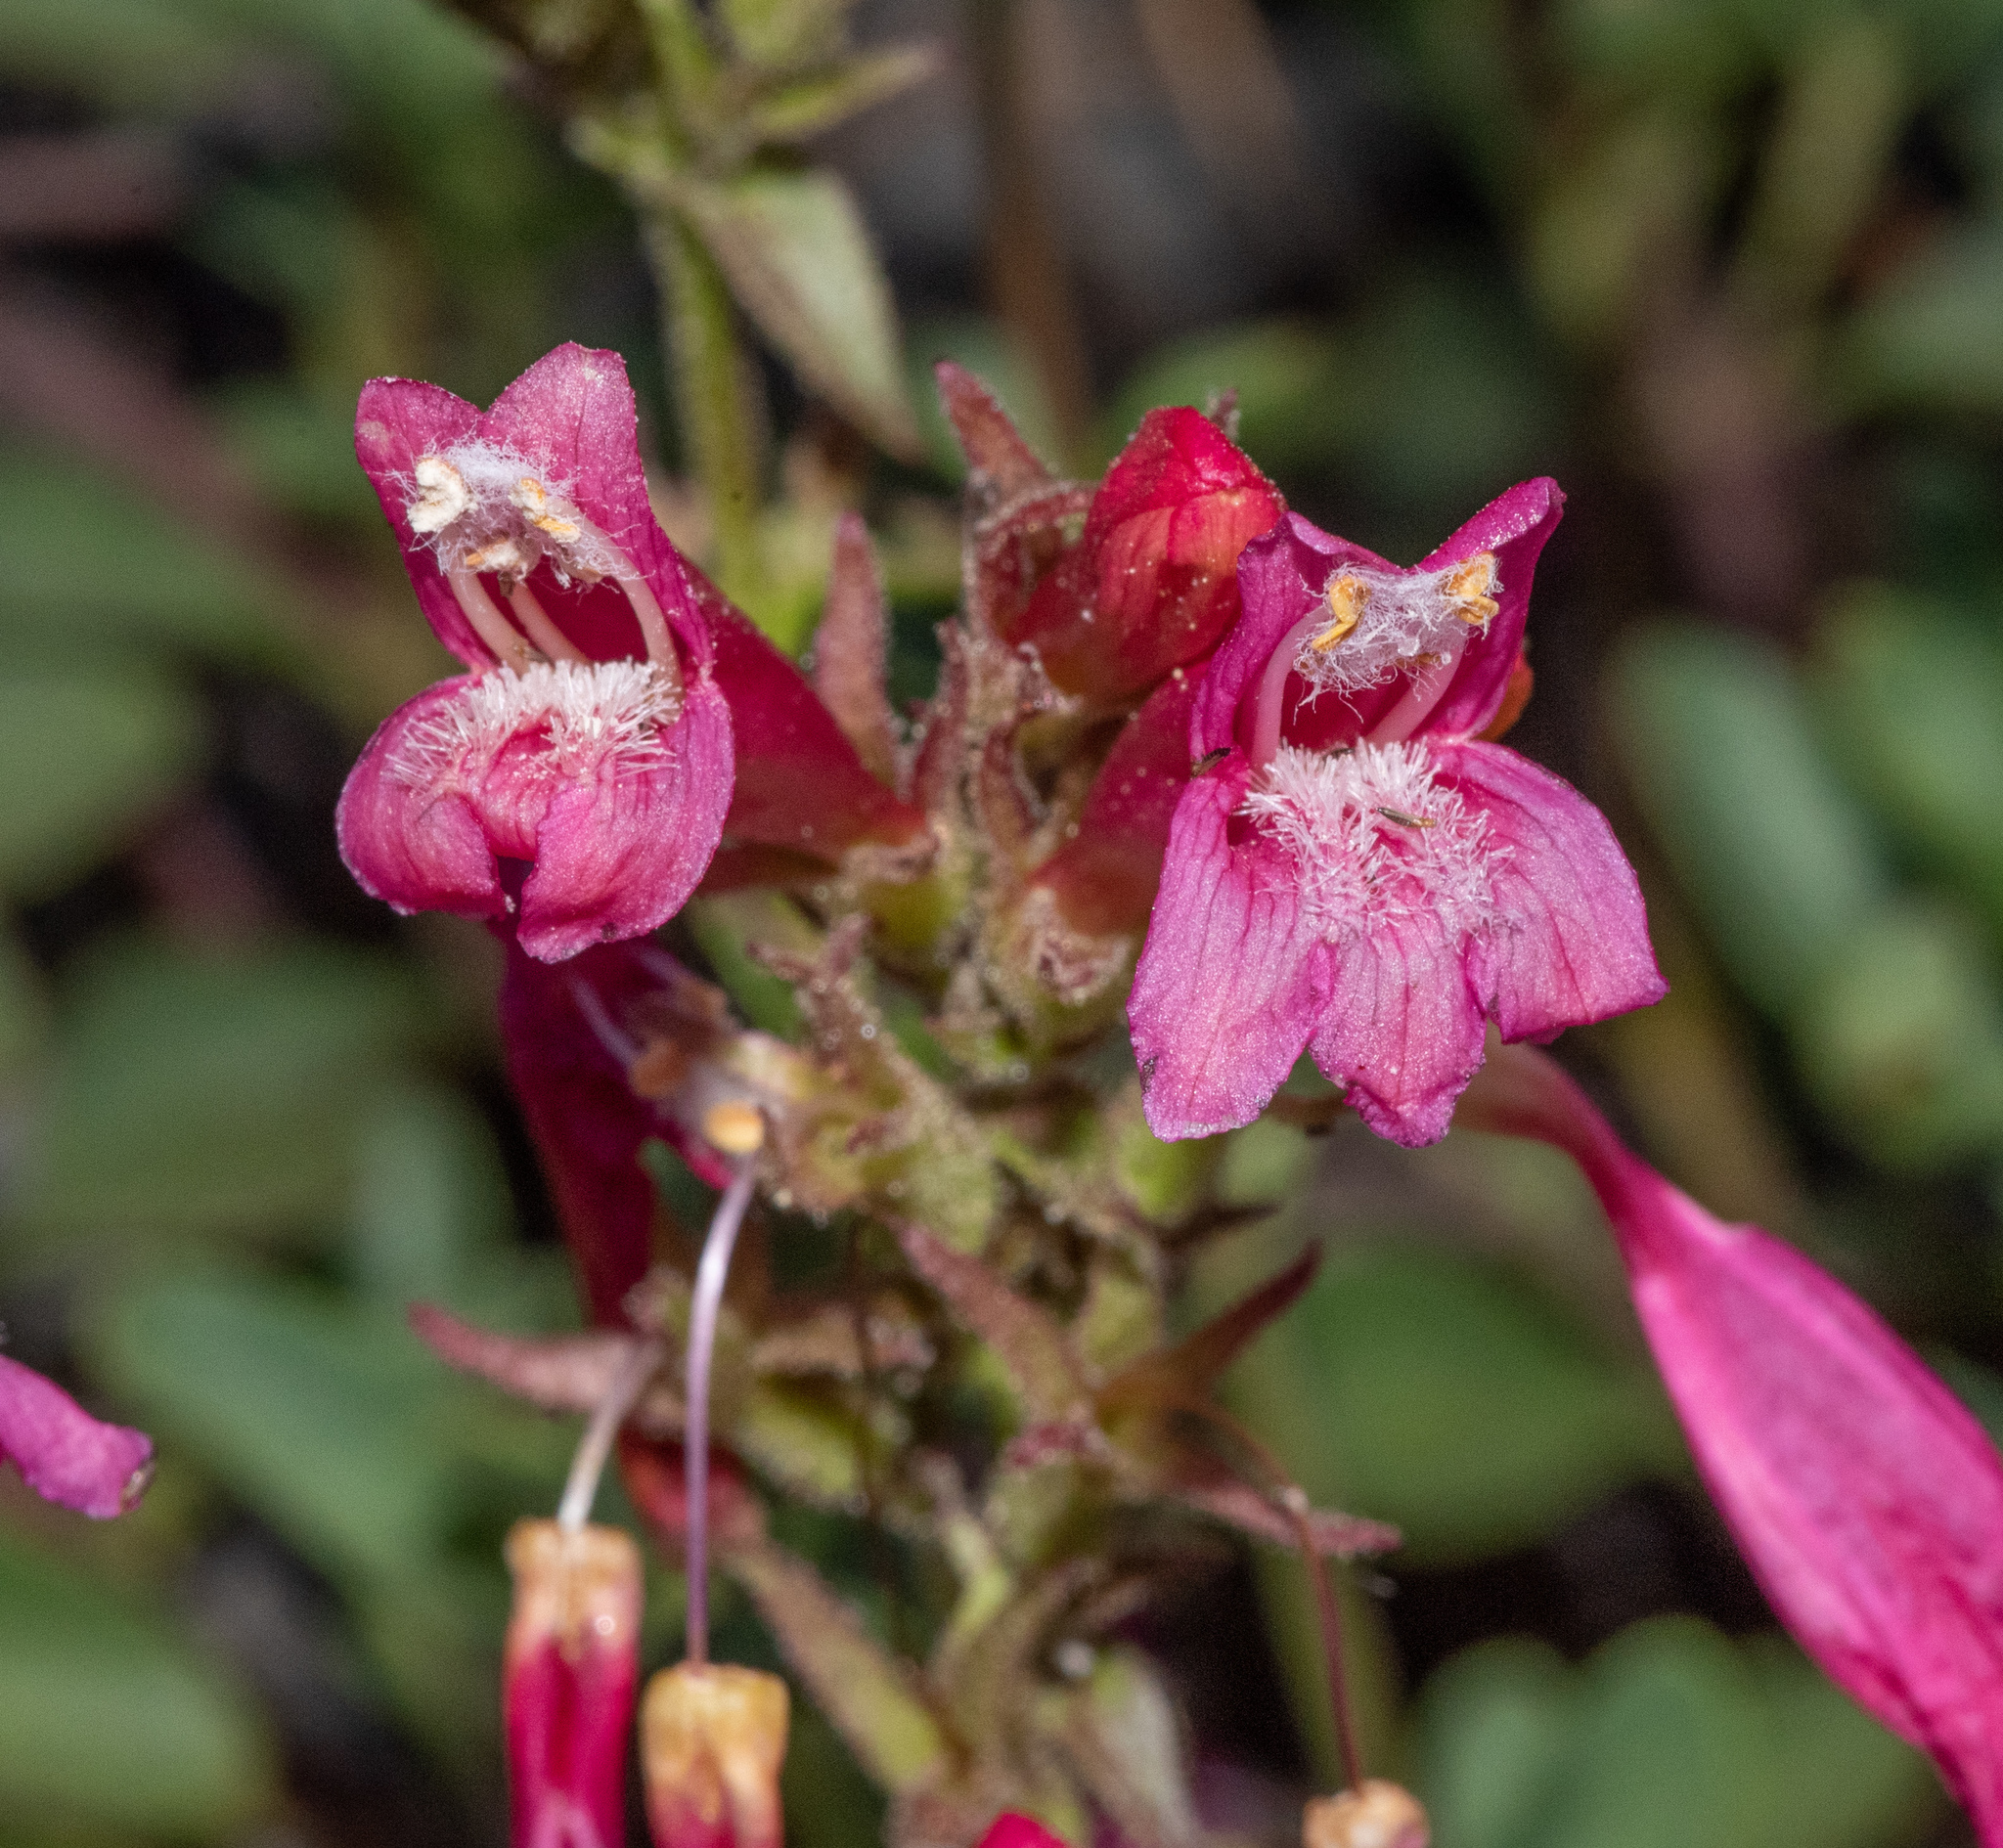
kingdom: Plantae
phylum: Tracheophyta
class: Magnoliopsida
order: Lamiales
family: Plantaginaceae
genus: Penstemon
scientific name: Penstemon newberryi
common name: Mountain-pride
